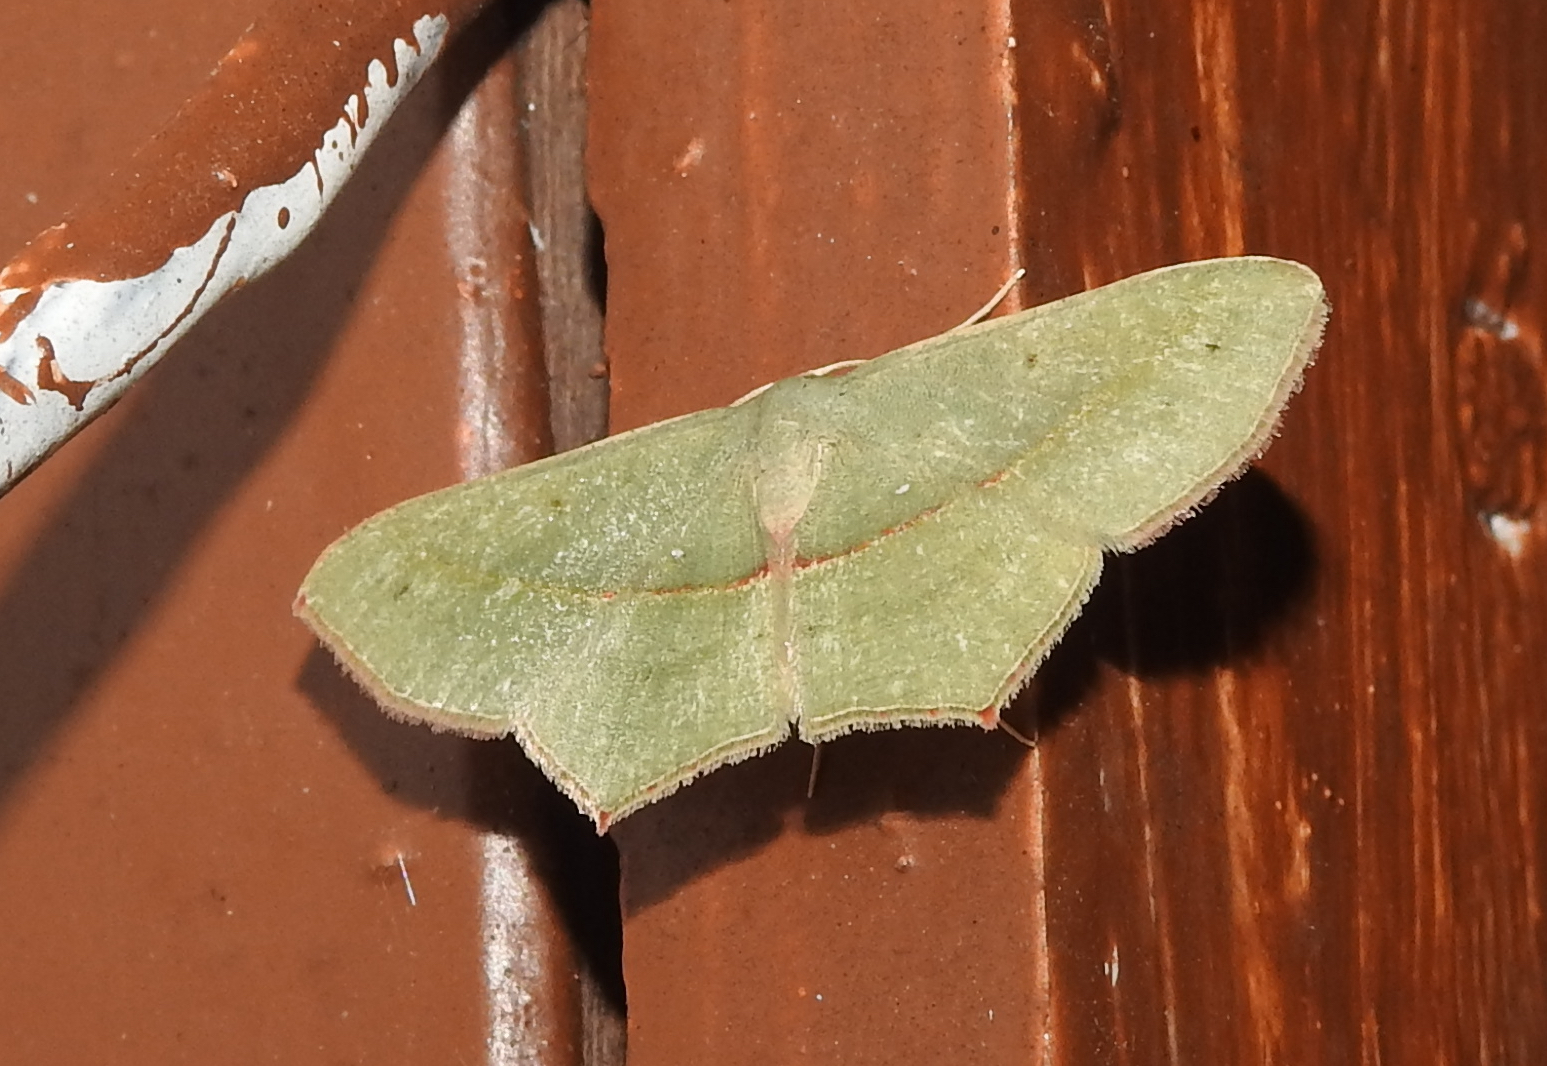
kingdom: Animalia
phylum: Arthropoda
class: Insecta
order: Lepidoptera
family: Geometridae
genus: Traminda
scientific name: Traminda mundissima
